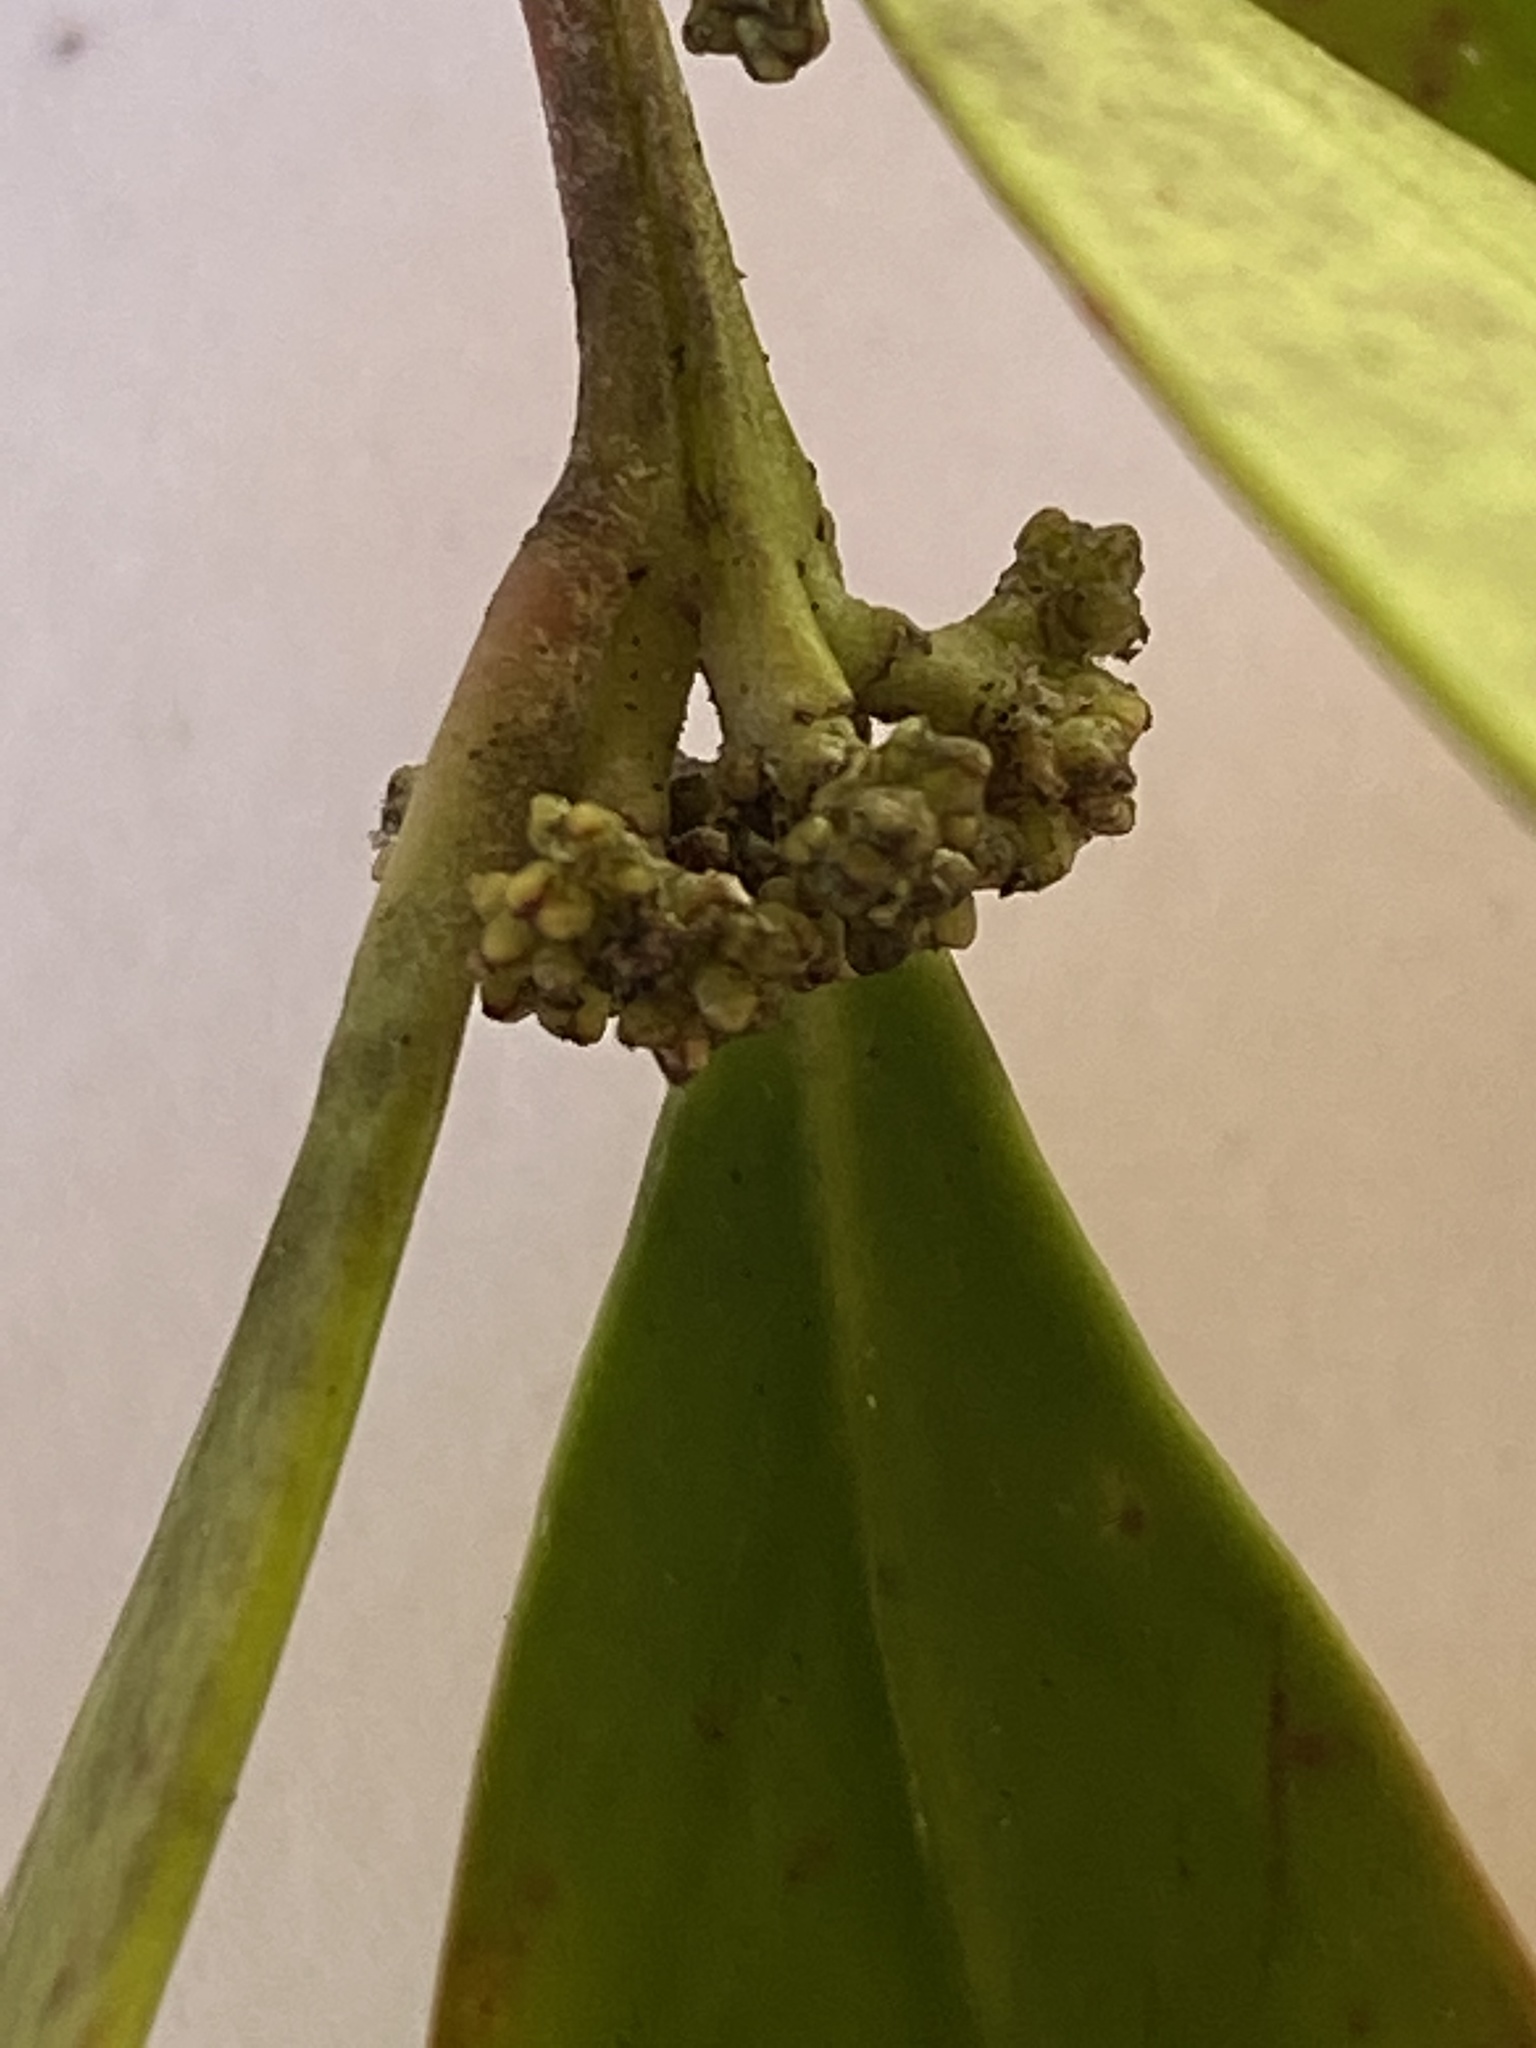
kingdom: Plantae
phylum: Tracheophyta
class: Magnoliopsida
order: Celastrales
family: Celastraceae
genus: Pterocelastrus
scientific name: Pterocelastrus tricuspidatus
